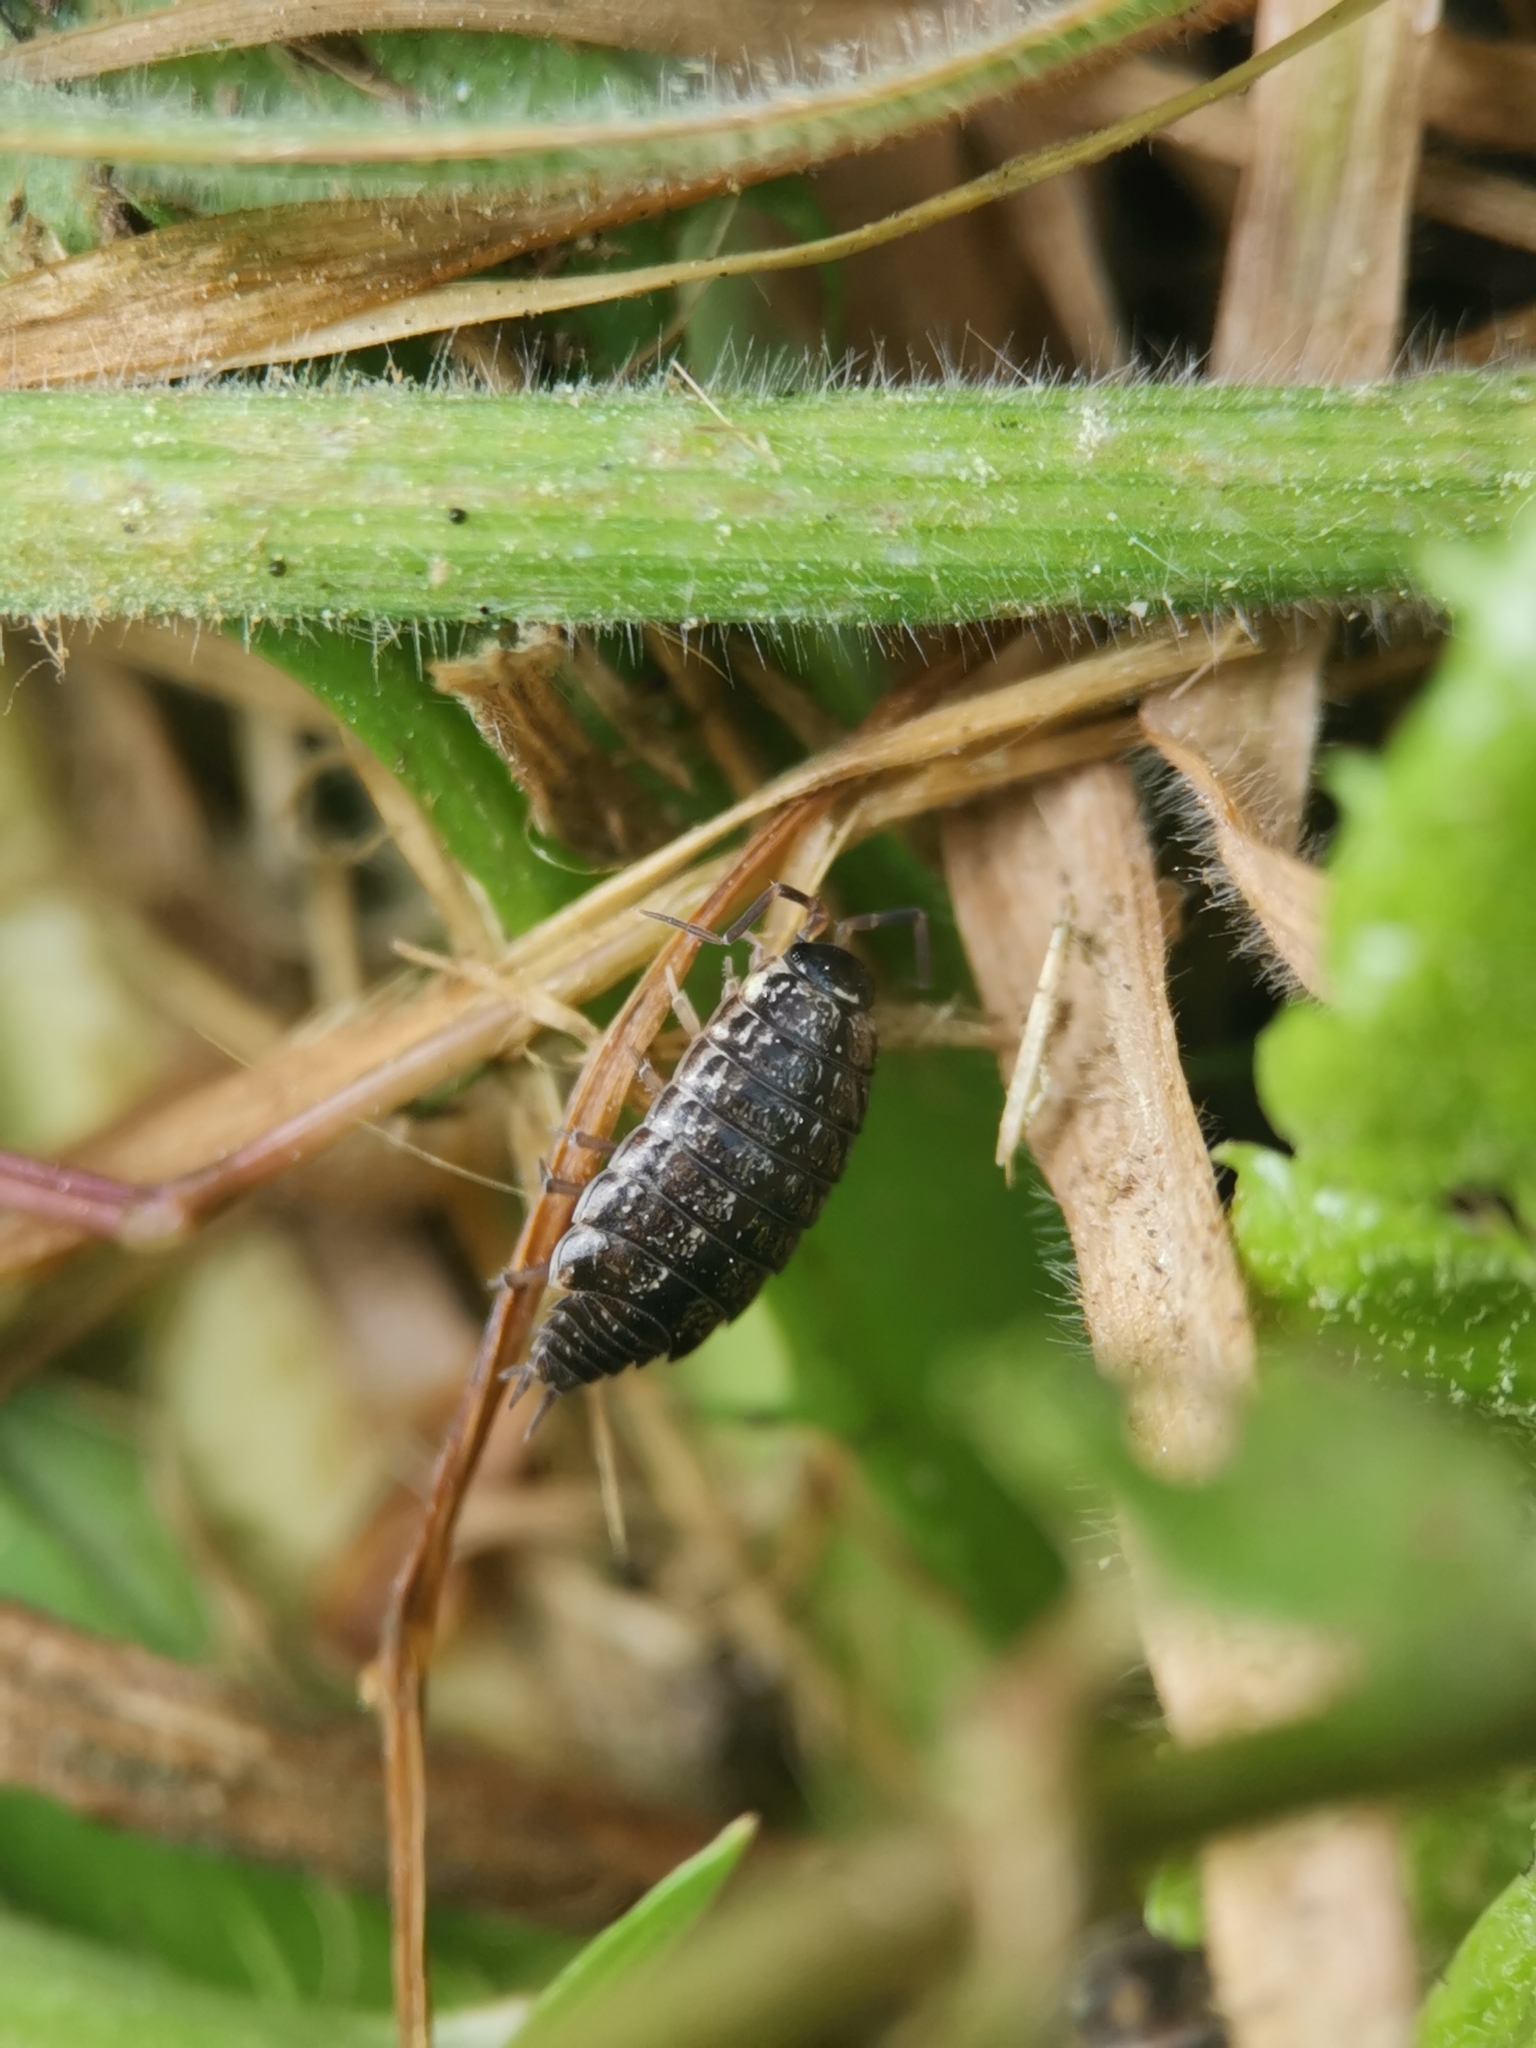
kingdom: Animalia
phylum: Arthropoda
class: Malacostraca
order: Isopoda
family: Philosciidae
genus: Philoscia
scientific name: Philoscia muscorum
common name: Common striped woodlouse
